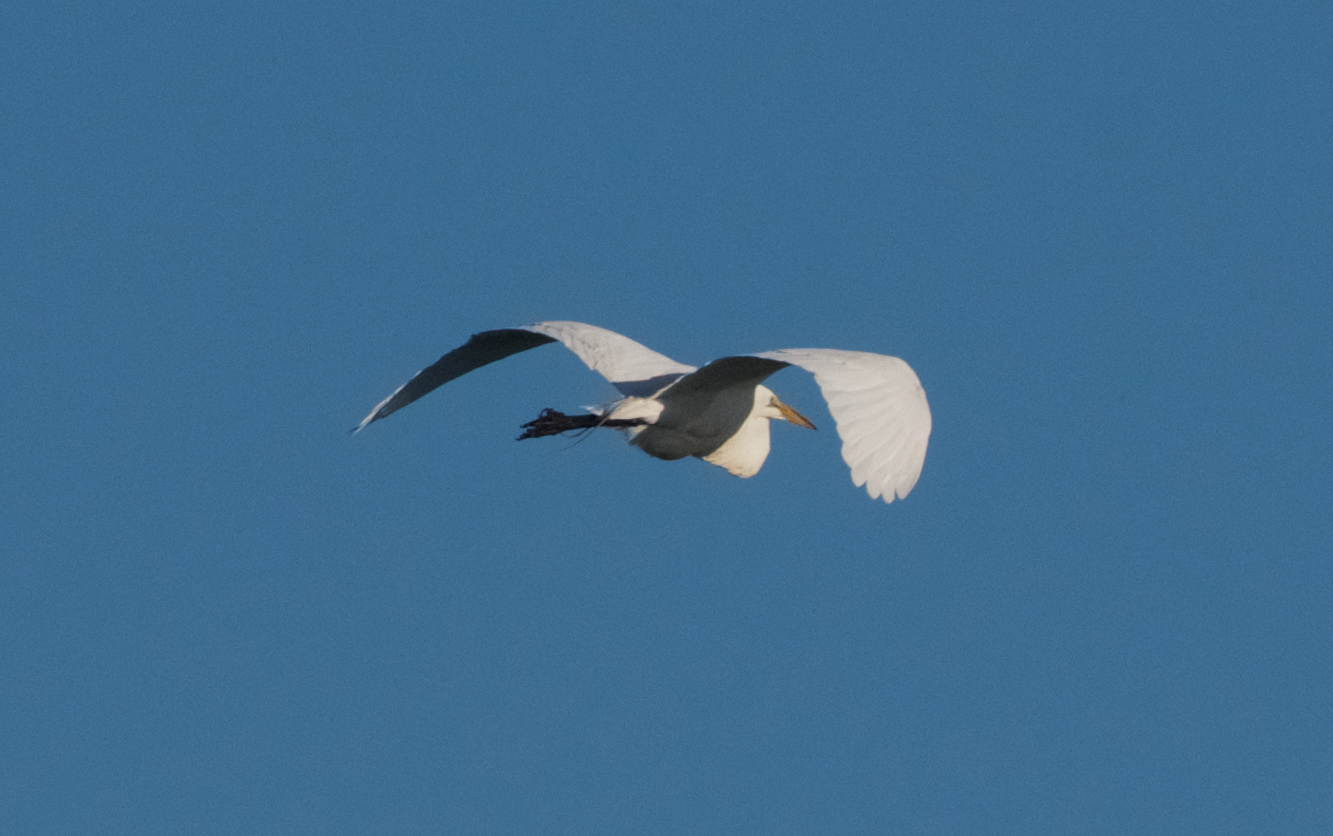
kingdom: Animalia
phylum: Chordata
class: Aves
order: Pelecaniformes
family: Ardeidae
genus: Ardea
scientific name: Ardea alba
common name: Great egret
